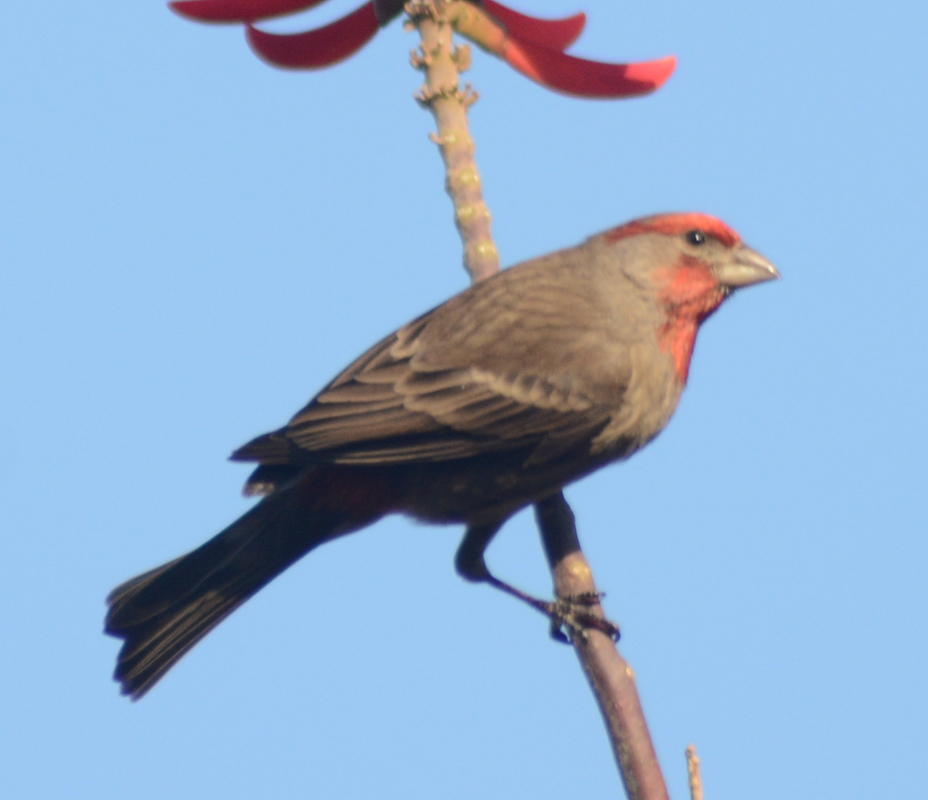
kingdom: Animalia
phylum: Chordata
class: Aves
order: Passeriformes
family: Fringillidae
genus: Haemorhous
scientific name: Haemorhous mexicanus
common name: House finch
